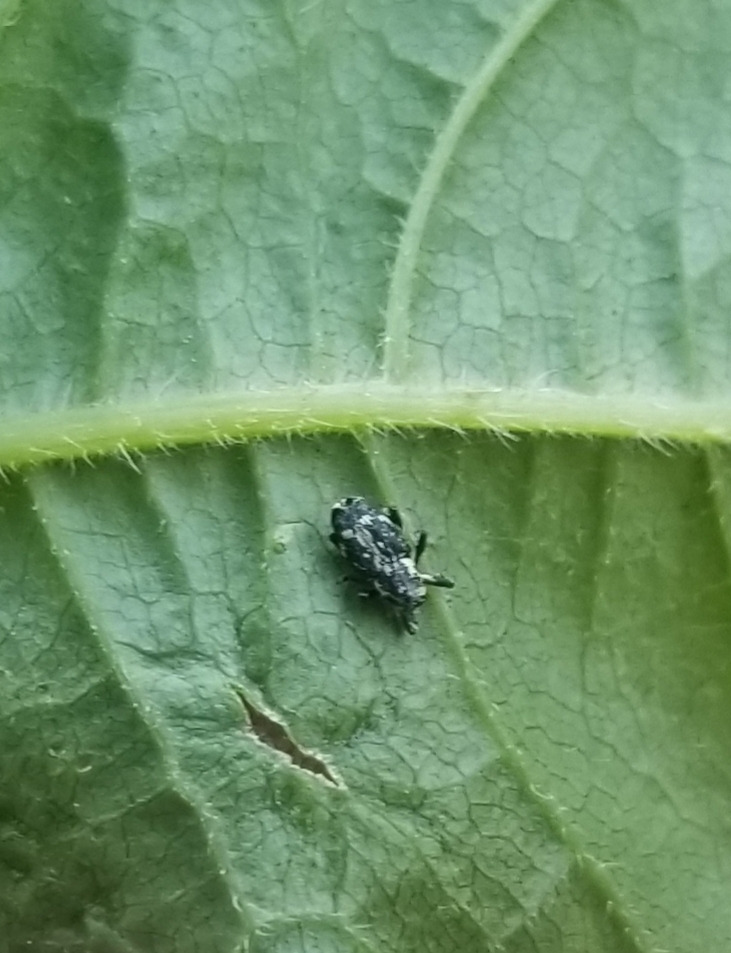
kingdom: Animalia
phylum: Arthropoda
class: Insecta
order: Coleoptera
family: Curculionidae
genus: Cylindrocopturus
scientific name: Cylindrocopturus quercus
